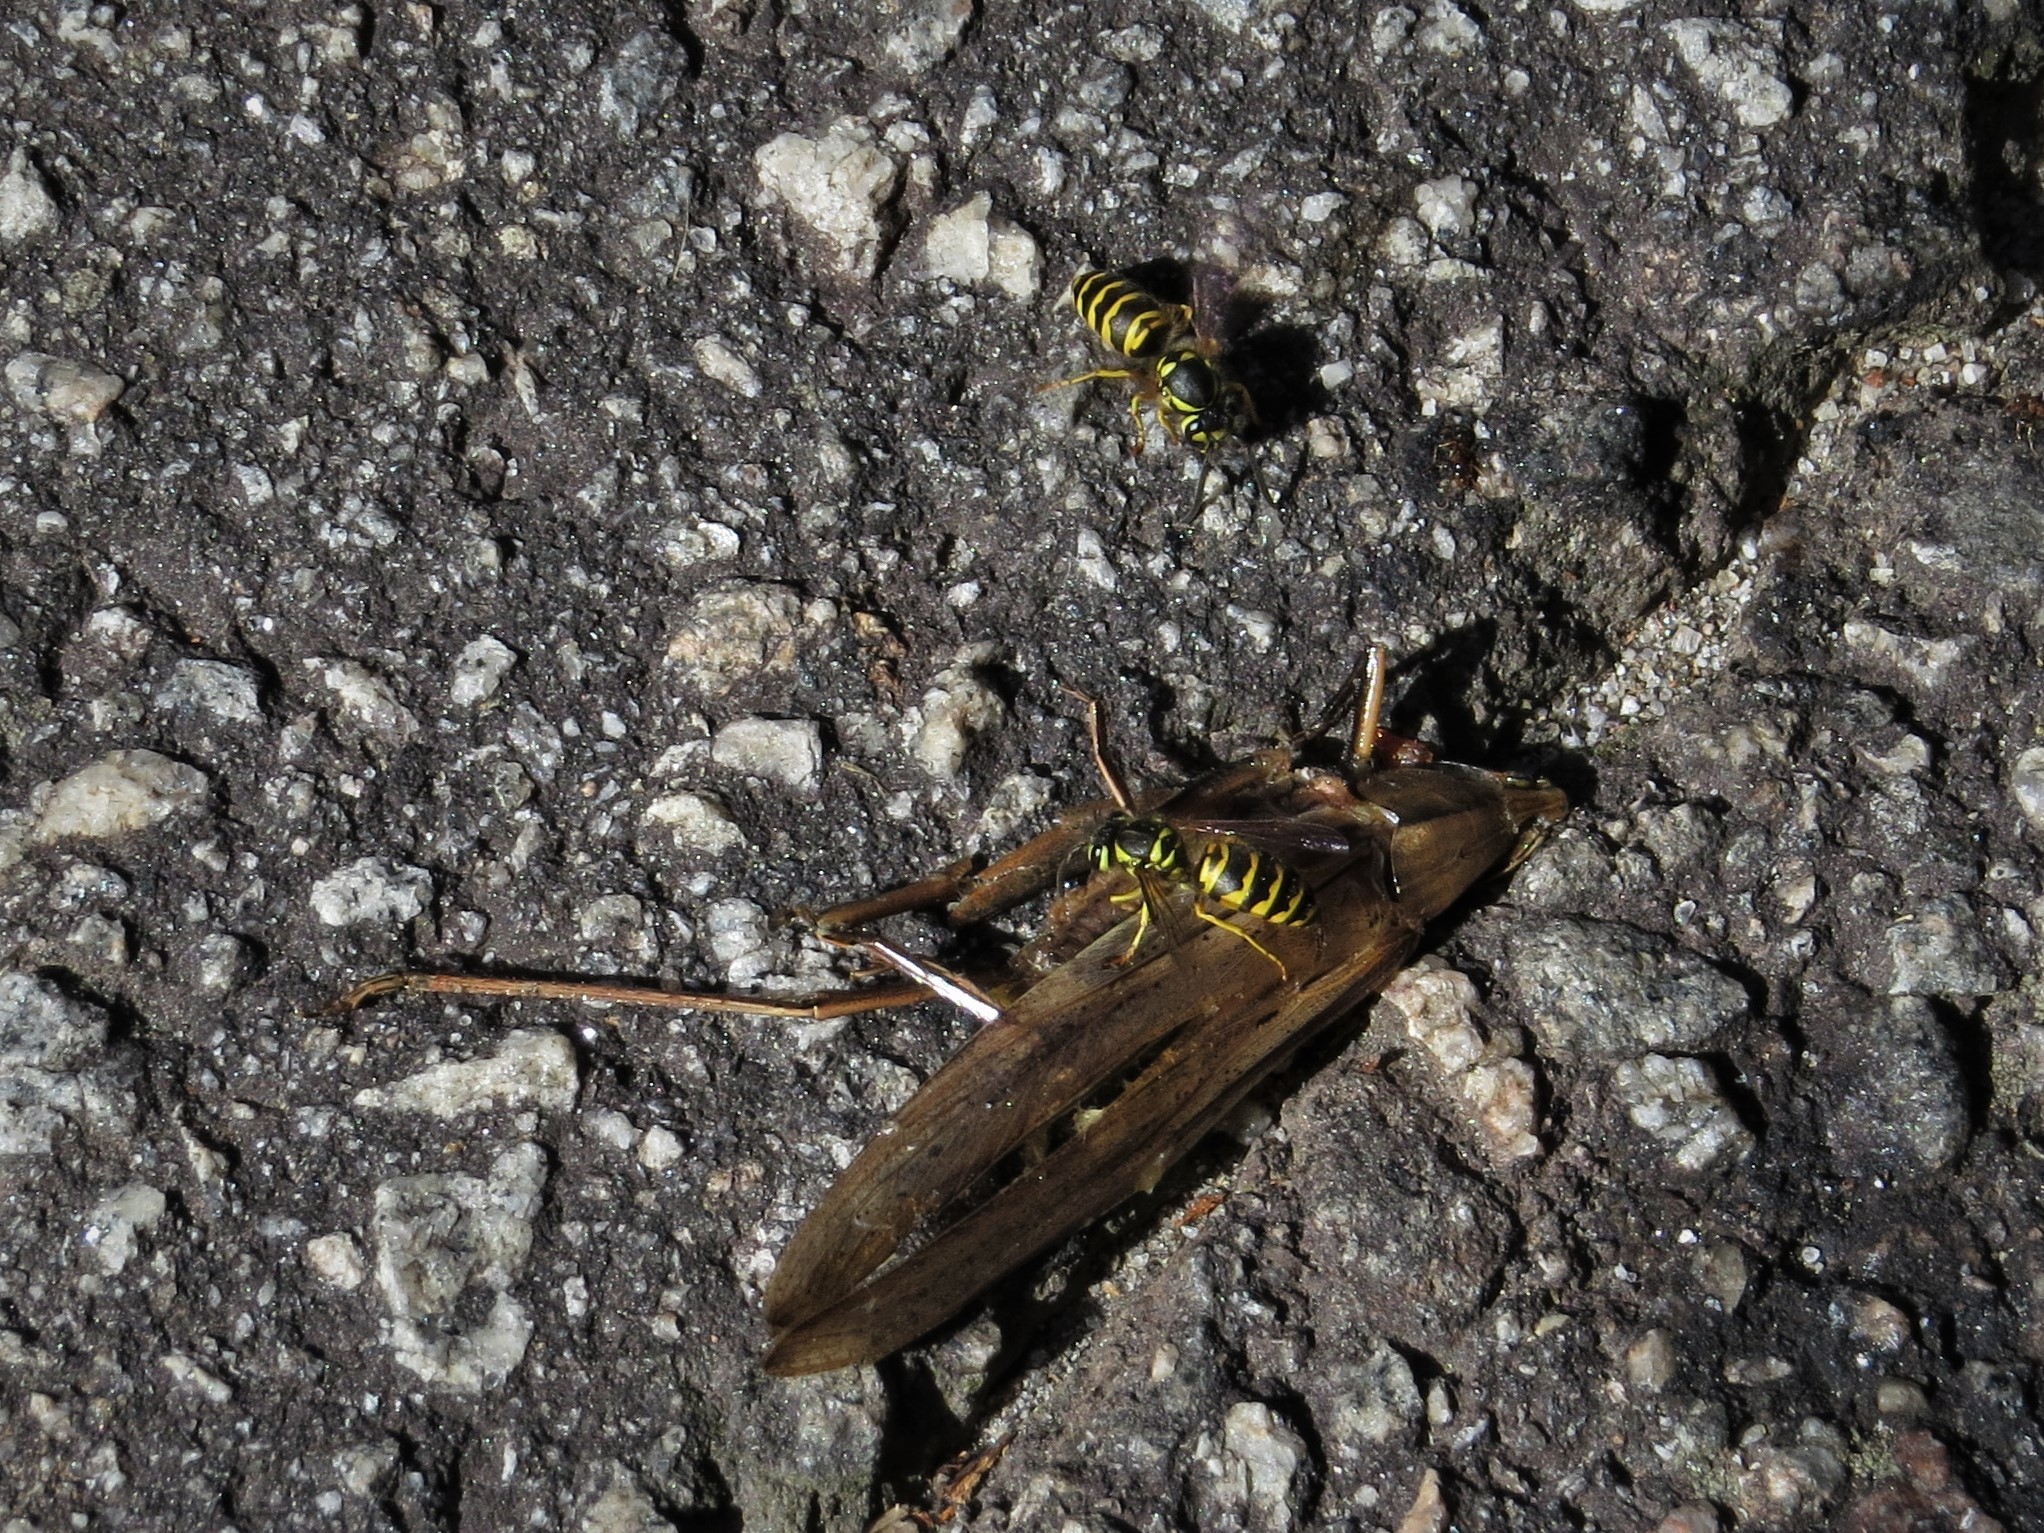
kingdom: Animalia
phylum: Arthropoda
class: Insecta
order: Hymenoptera
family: Vespidae
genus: Vespula
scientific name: Vespula maculifrons
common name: Eastern yellowjacket
